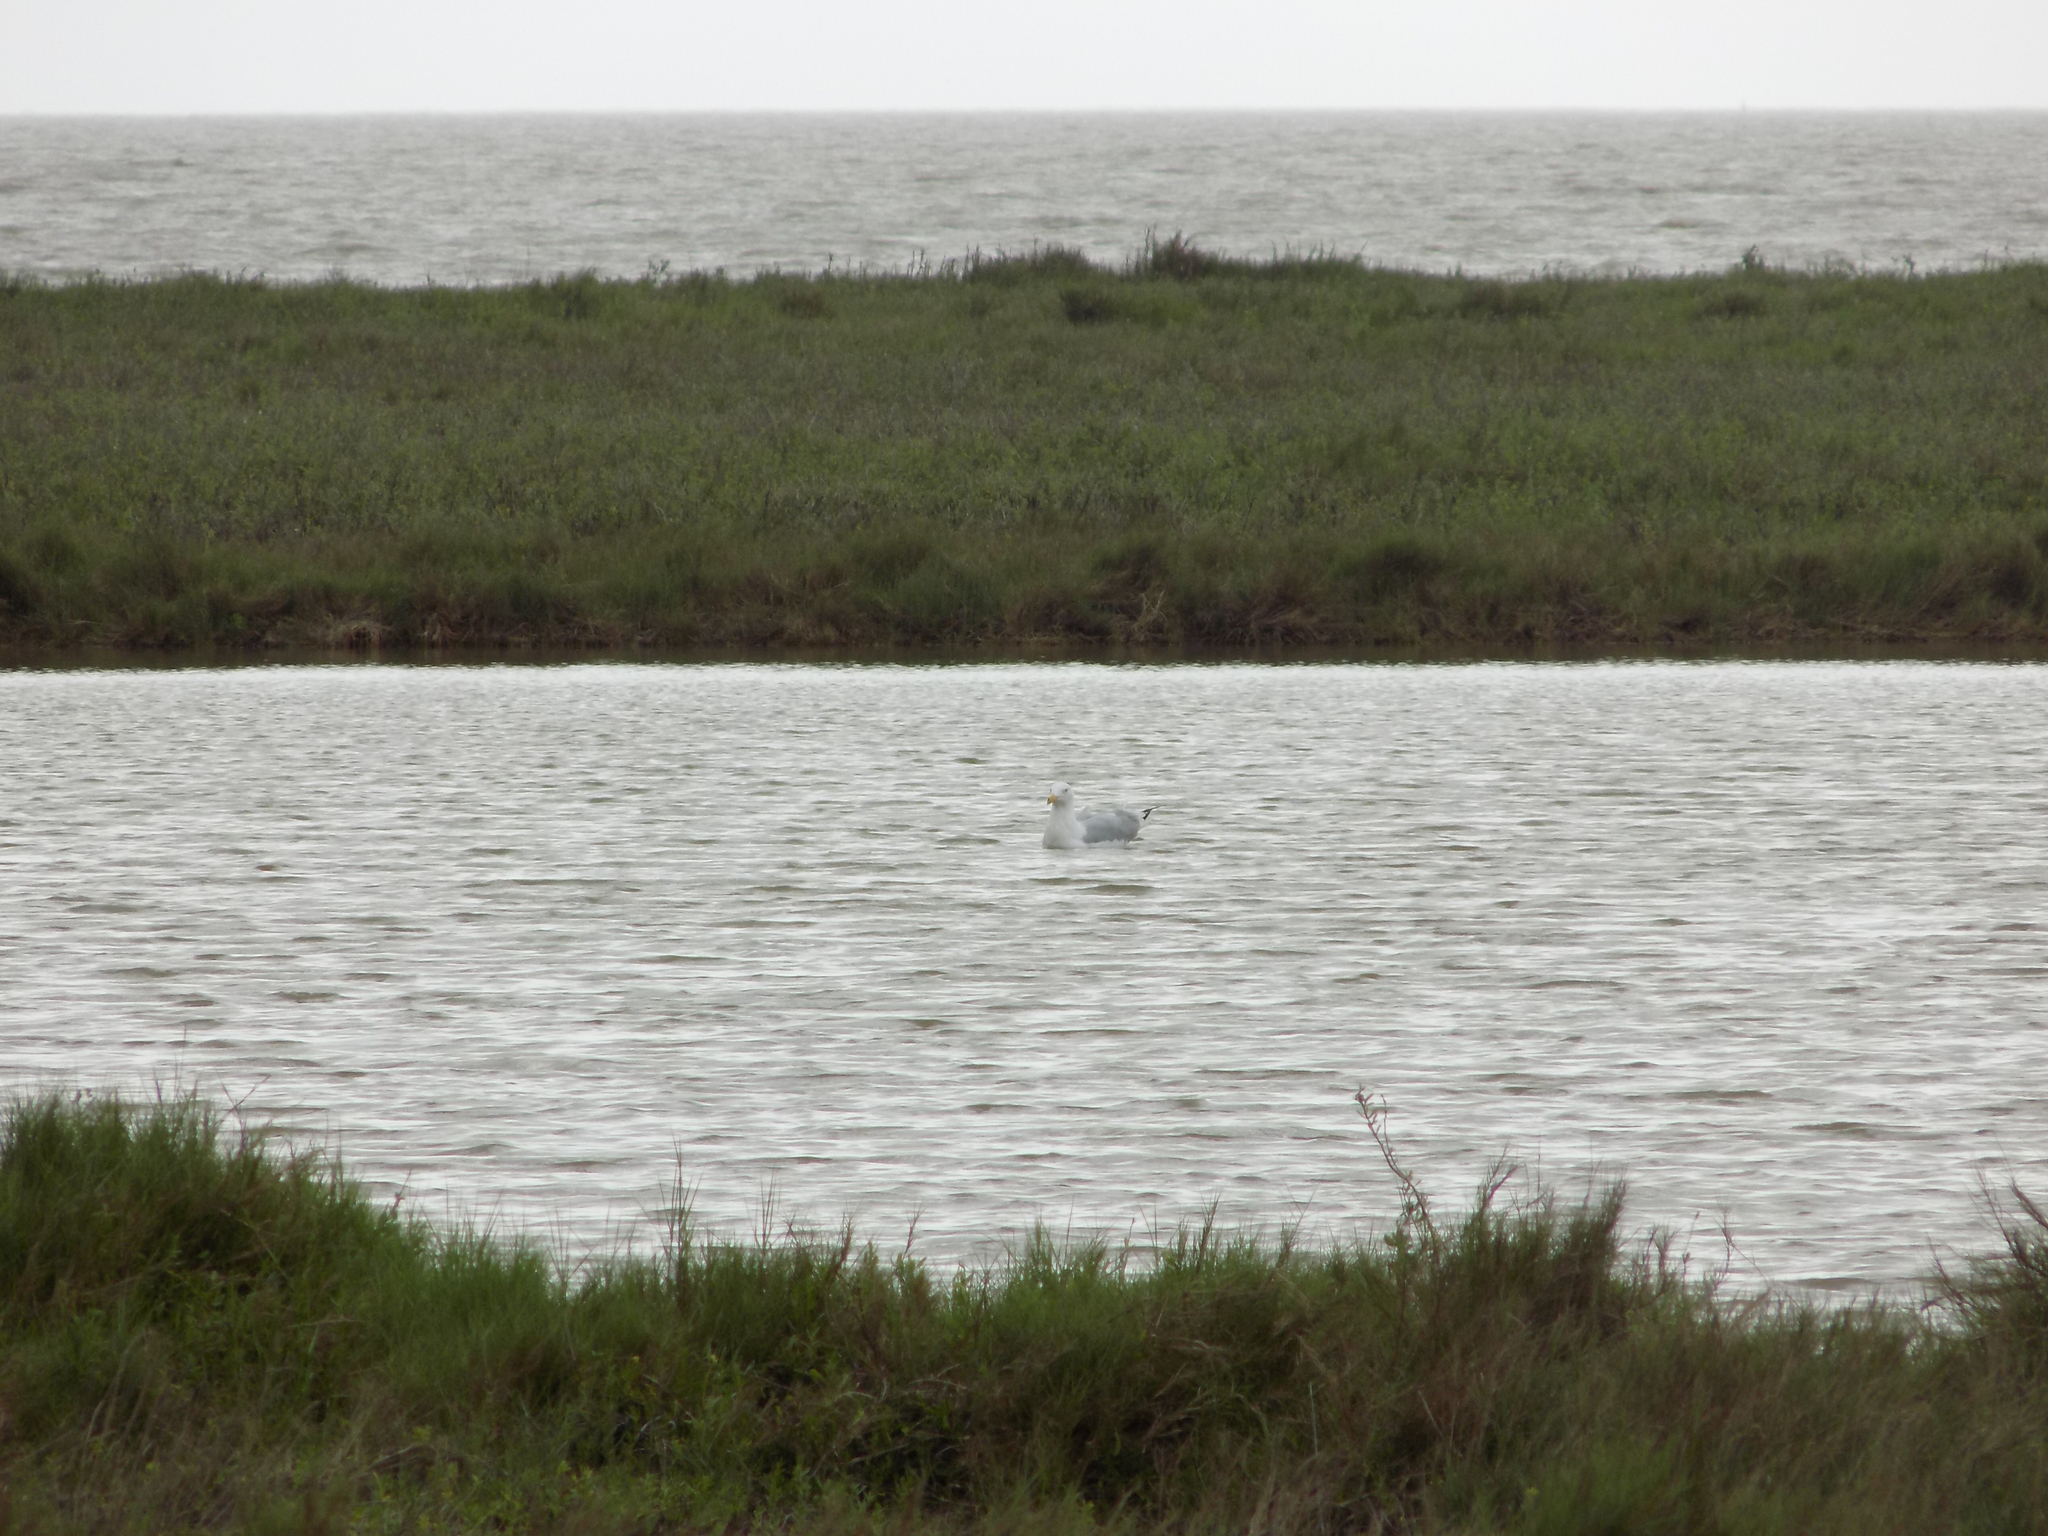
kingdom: Animalia
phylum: Chordata
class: Aves
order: Charadriiformes
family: Laridae
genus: Larus
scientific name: Larus argentatus
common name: Herring gull
